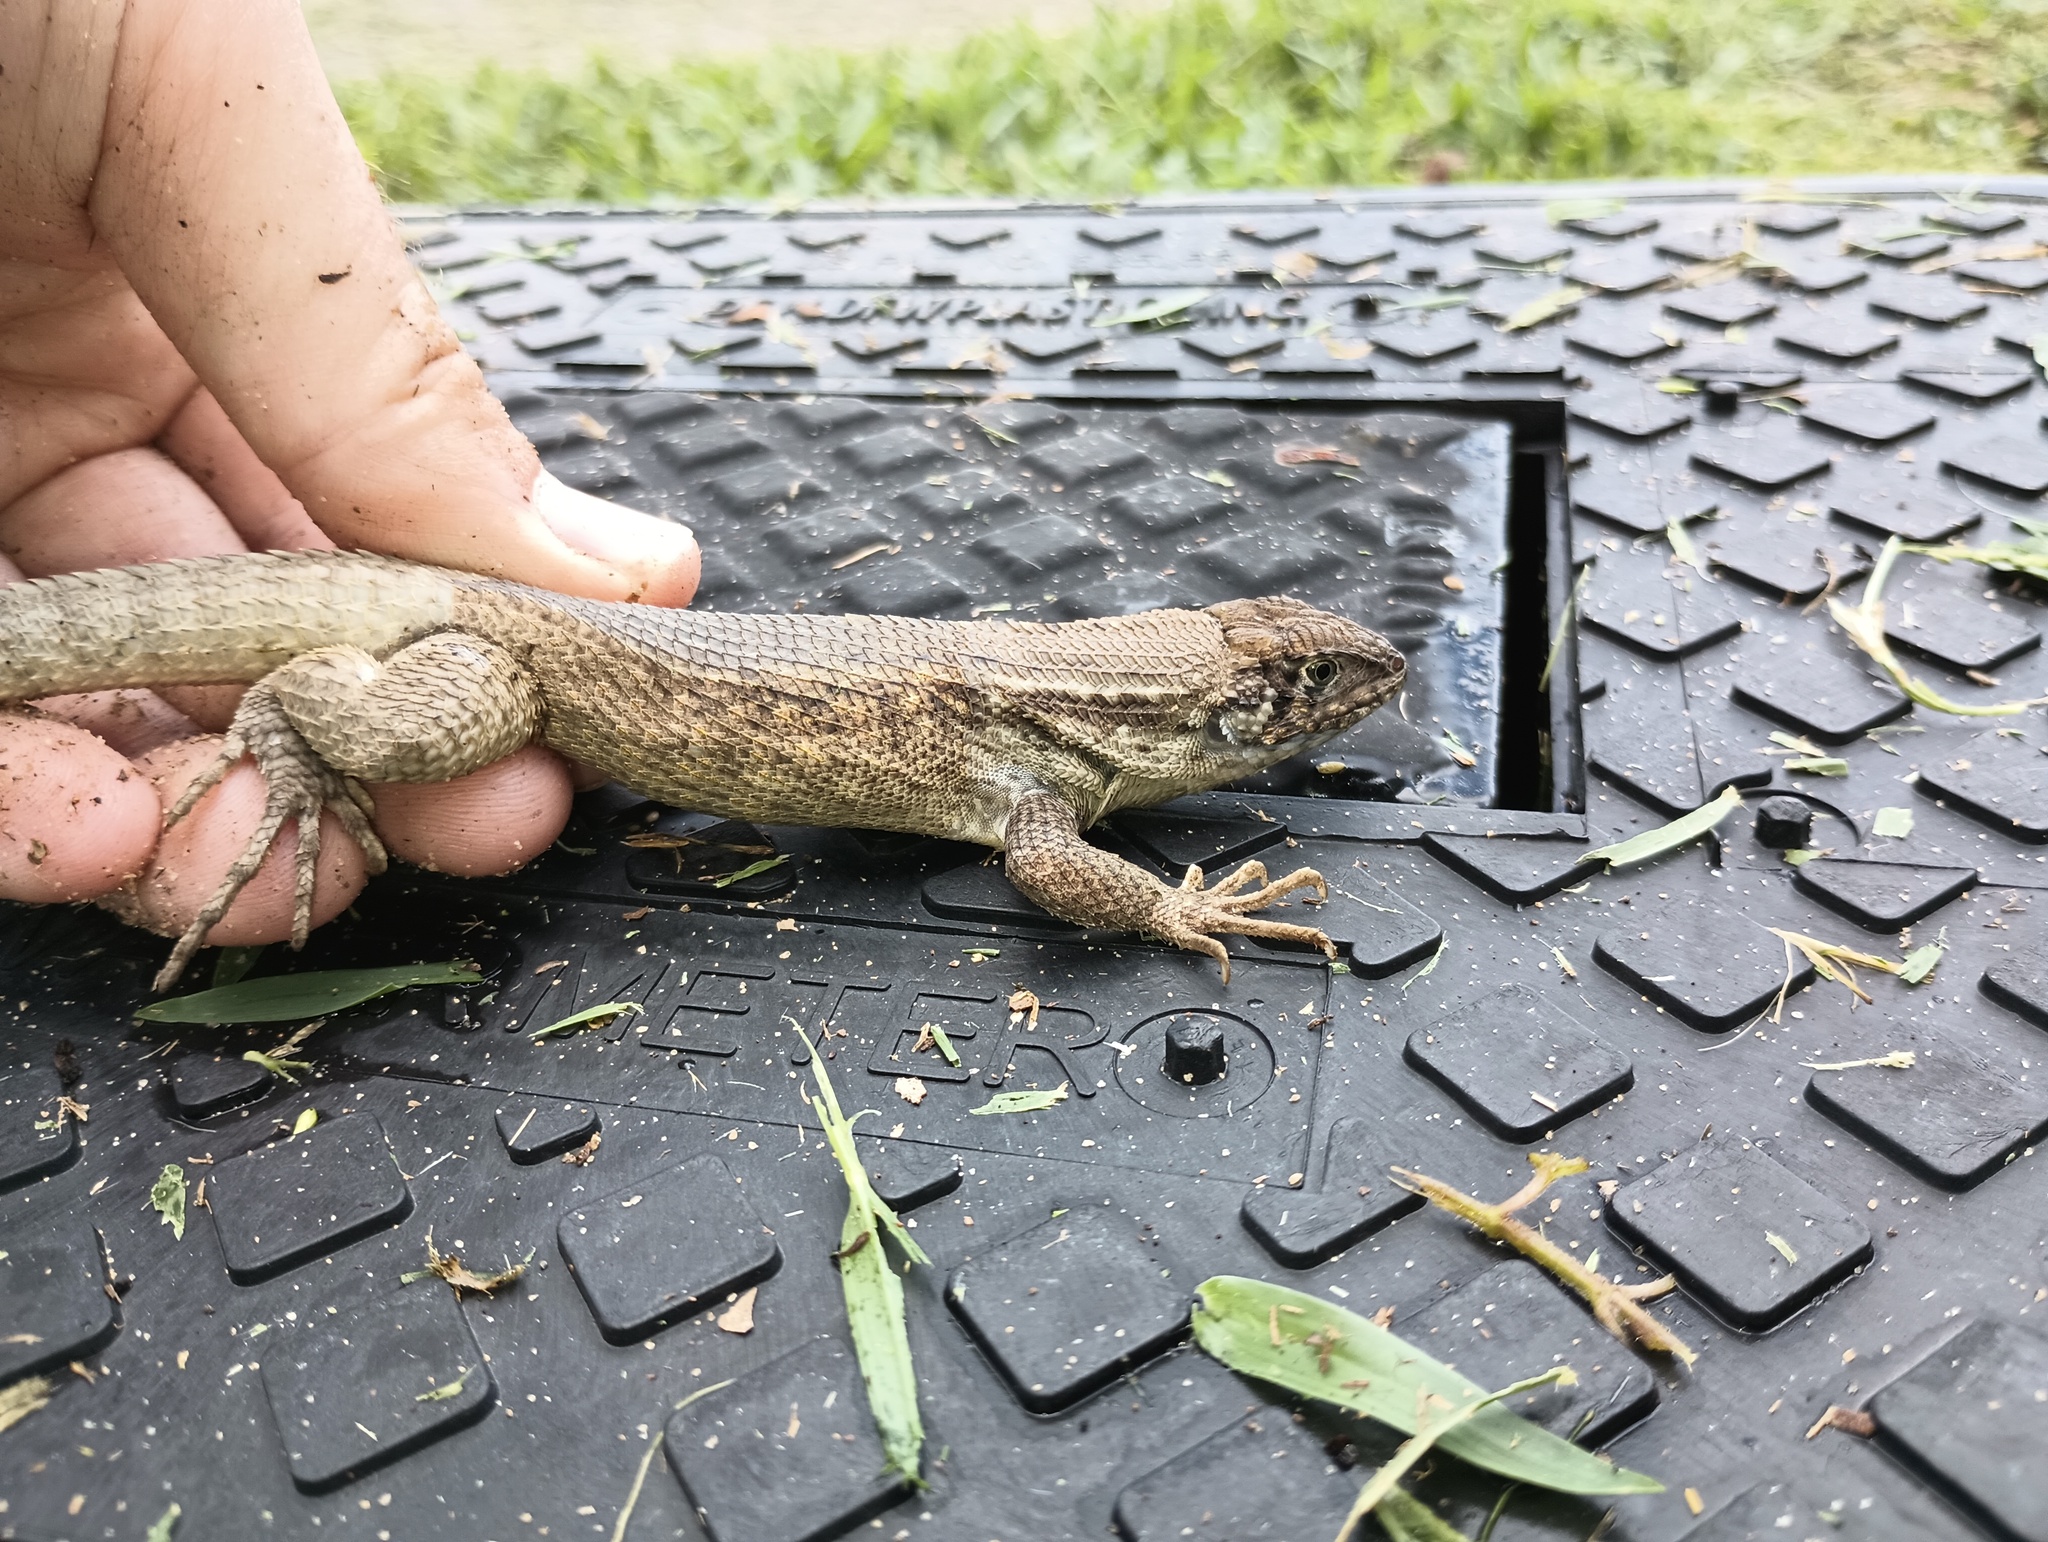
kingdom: Animalia
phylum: Chordata
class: Squamata
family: Leiocephalidae
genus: Leiocephalus
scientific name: Leiocephalus carinatus
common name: Northern curly-tailed lizard
